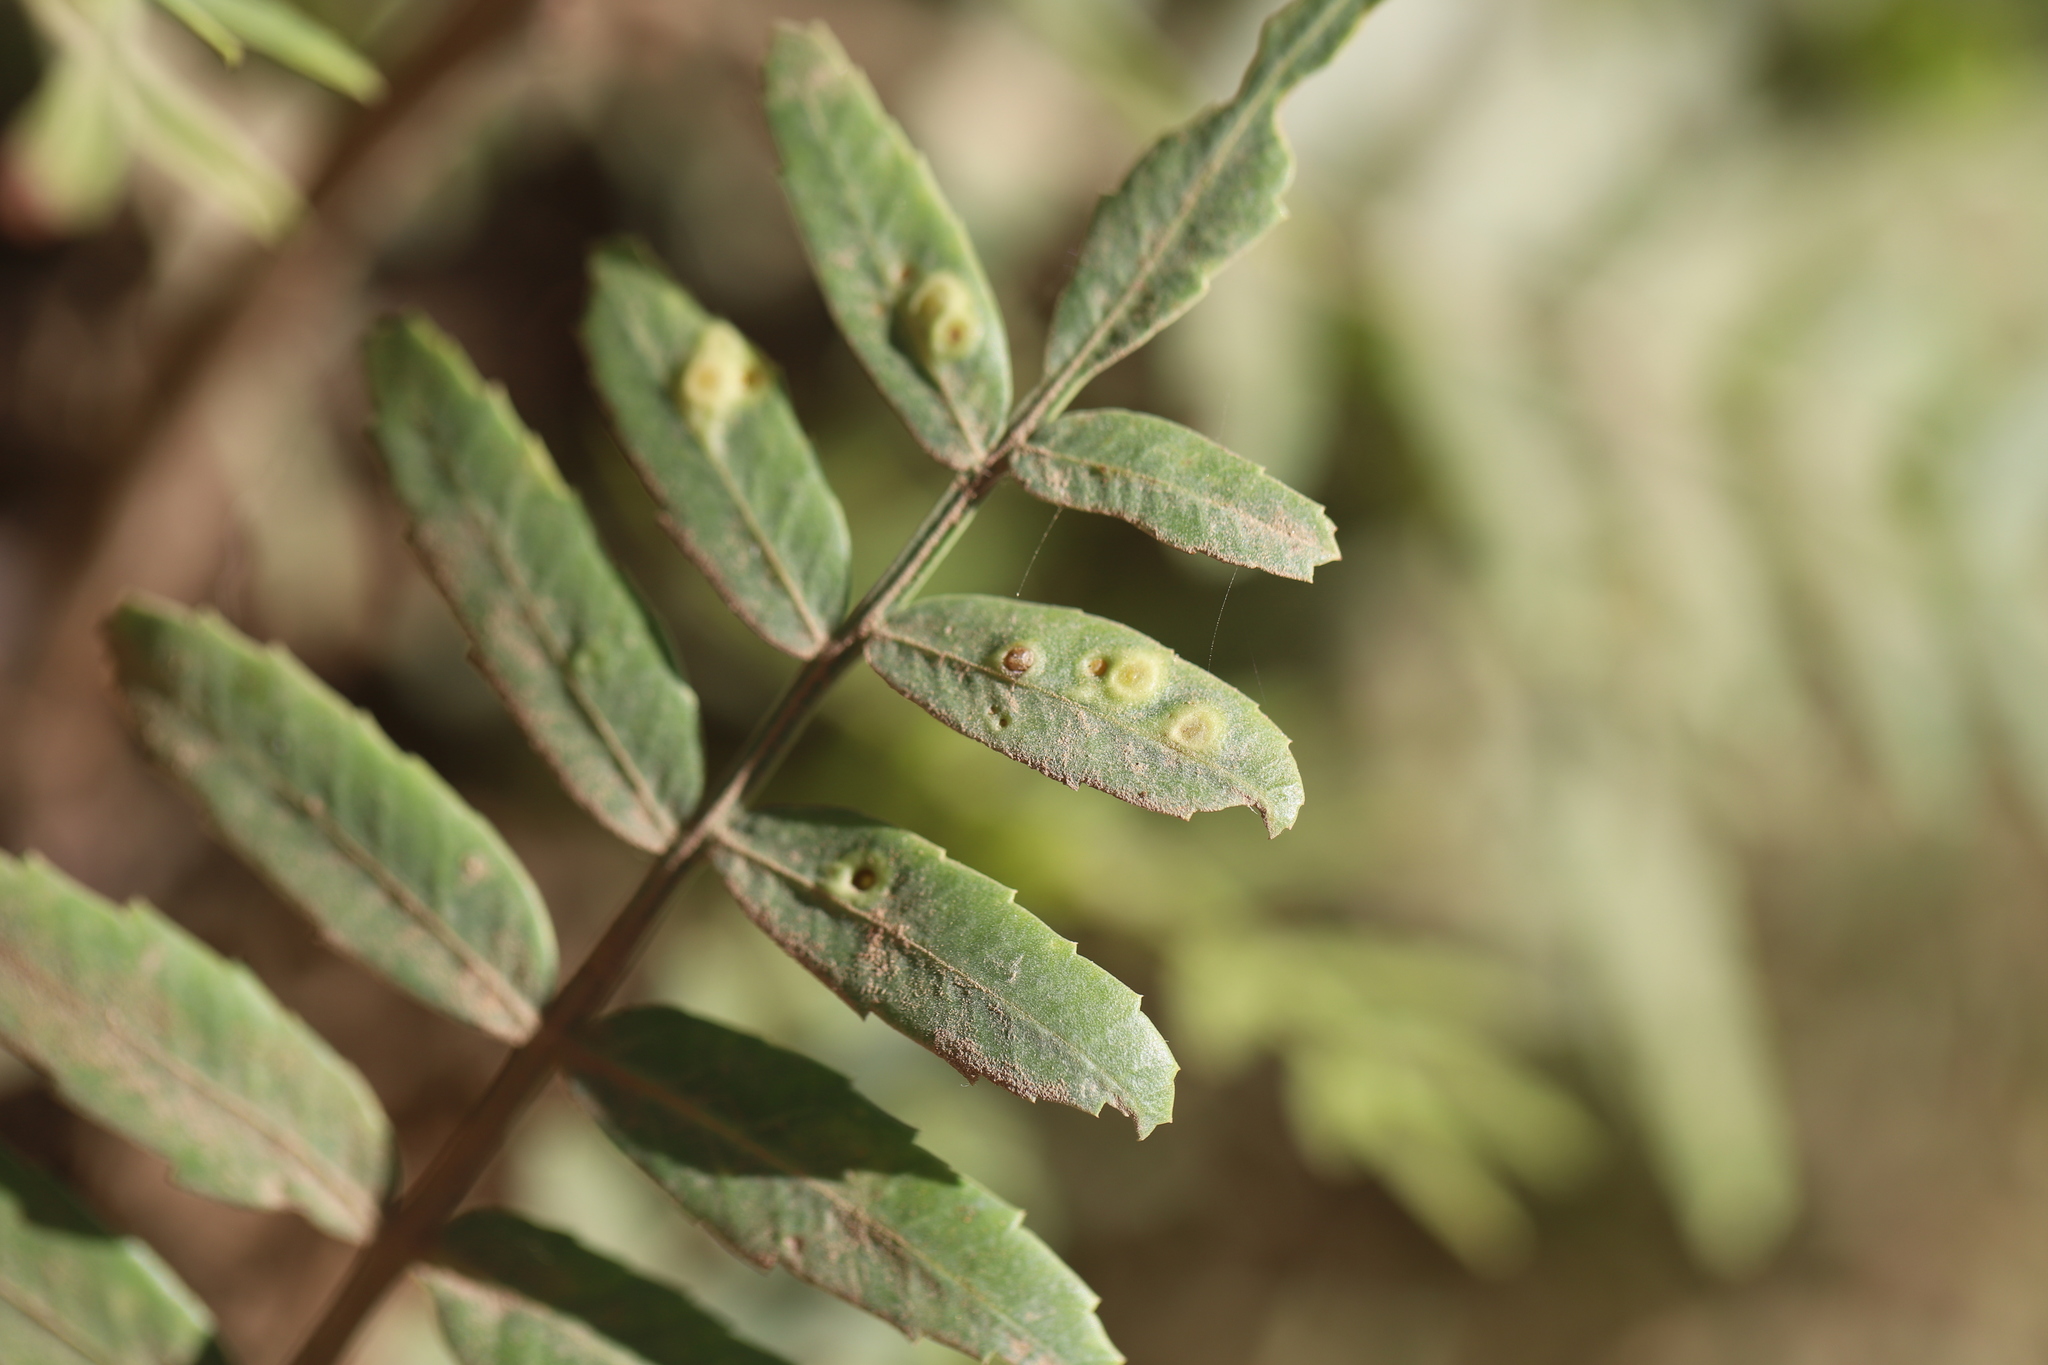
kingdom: Animalia
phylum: Arthropoda
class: Insecta
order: Hemiptera
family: Calophyidae
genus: Calophya
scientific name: Calophya schini
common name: Pepper tree psyllid
